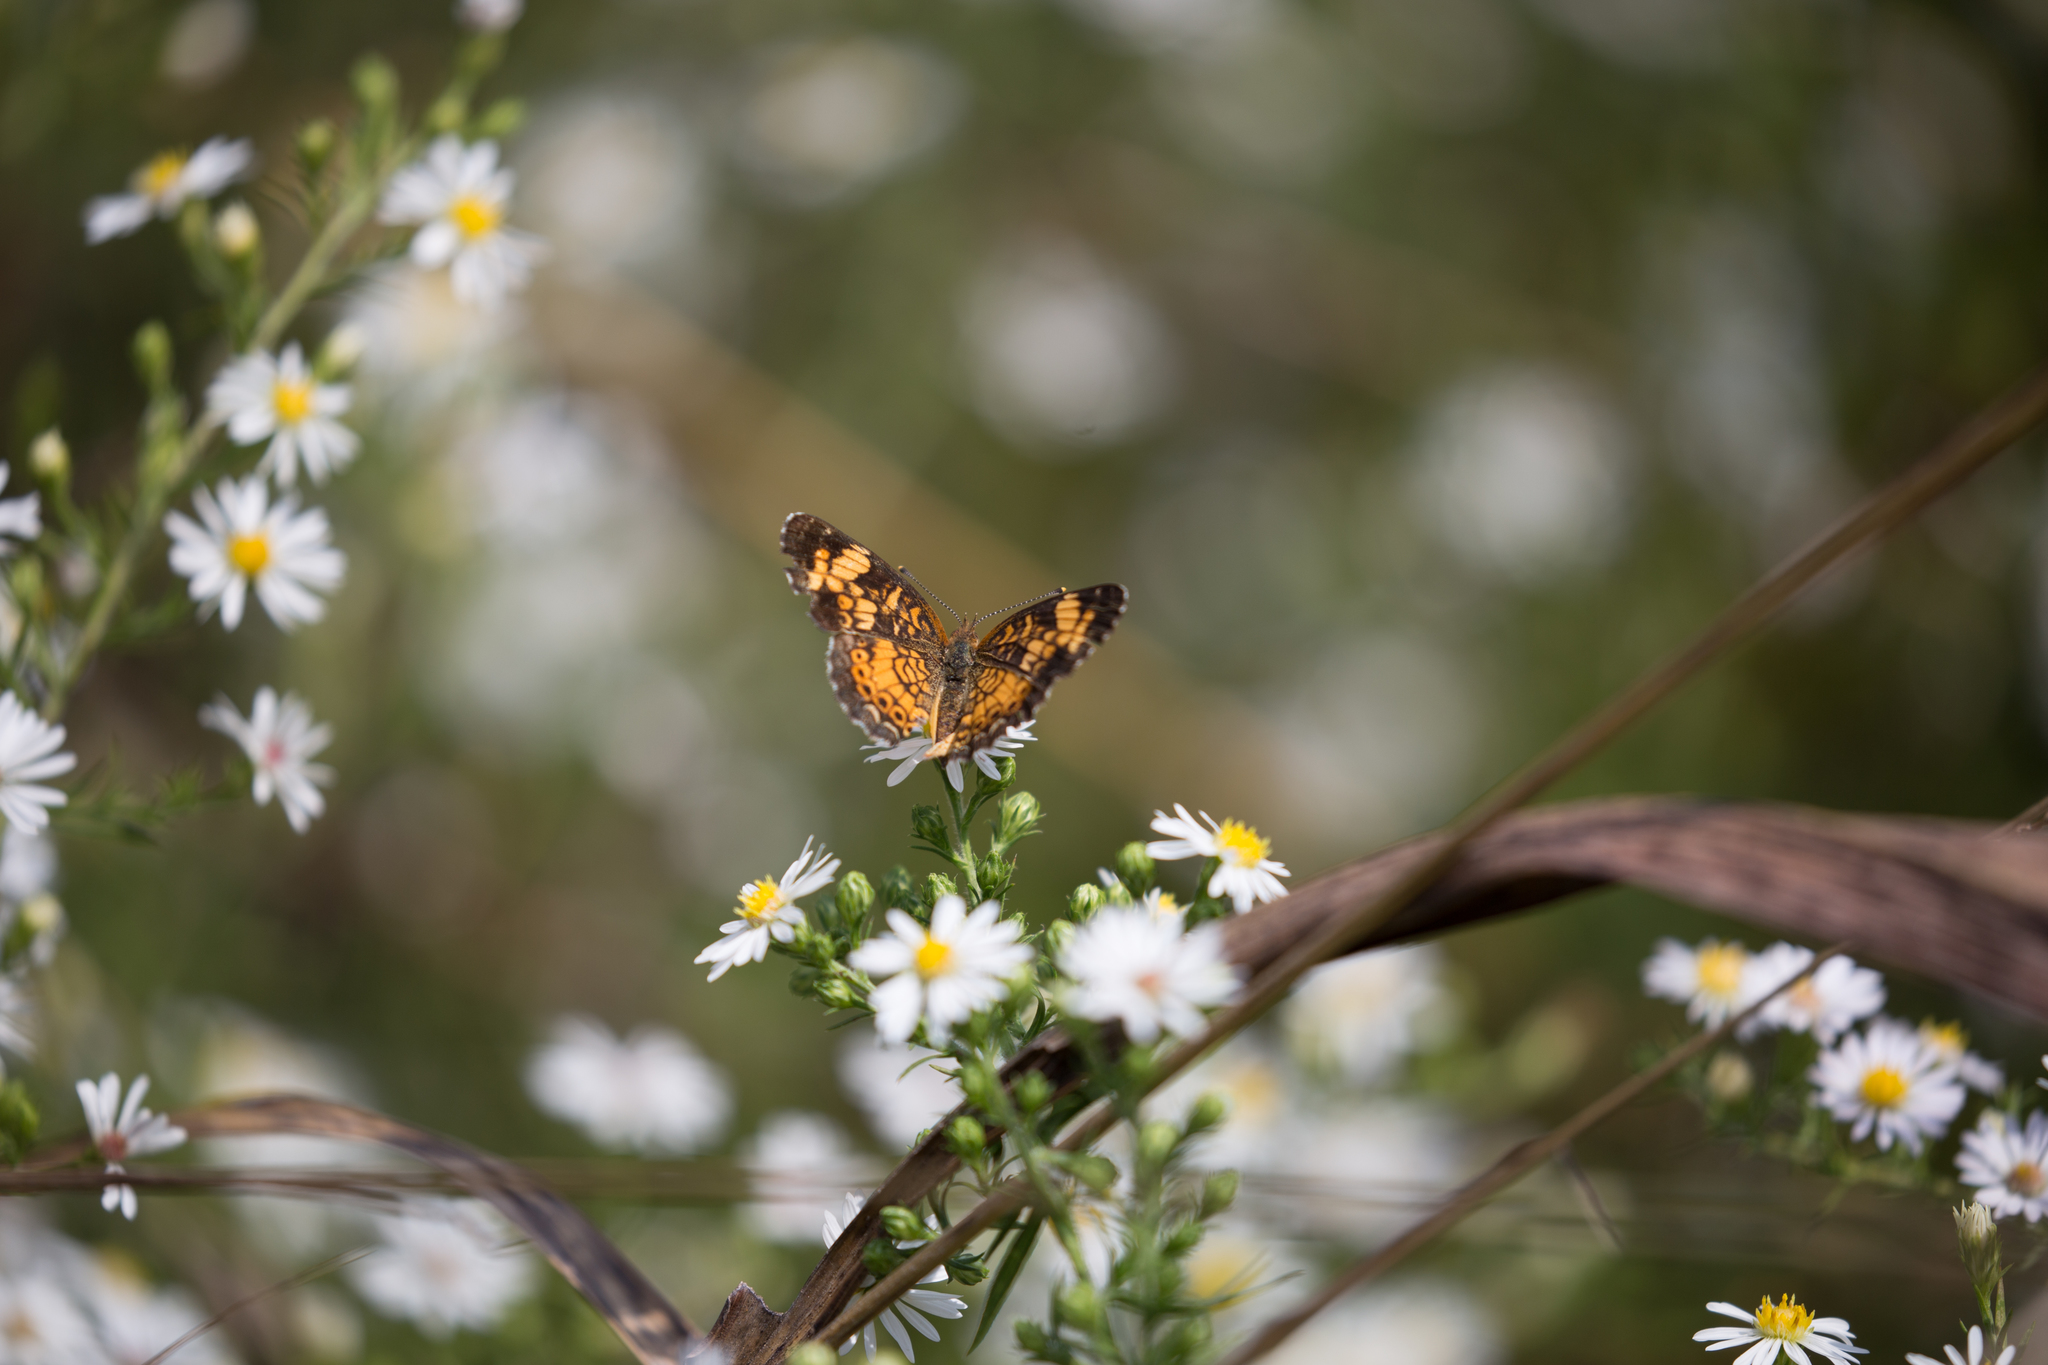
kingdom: Animalia
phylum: Arthropoda
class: Insecta
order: Lepidoptera
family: Nymphalidae
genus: Phyciodes
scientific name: Phyciodes tharos
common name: Pearl crescent
